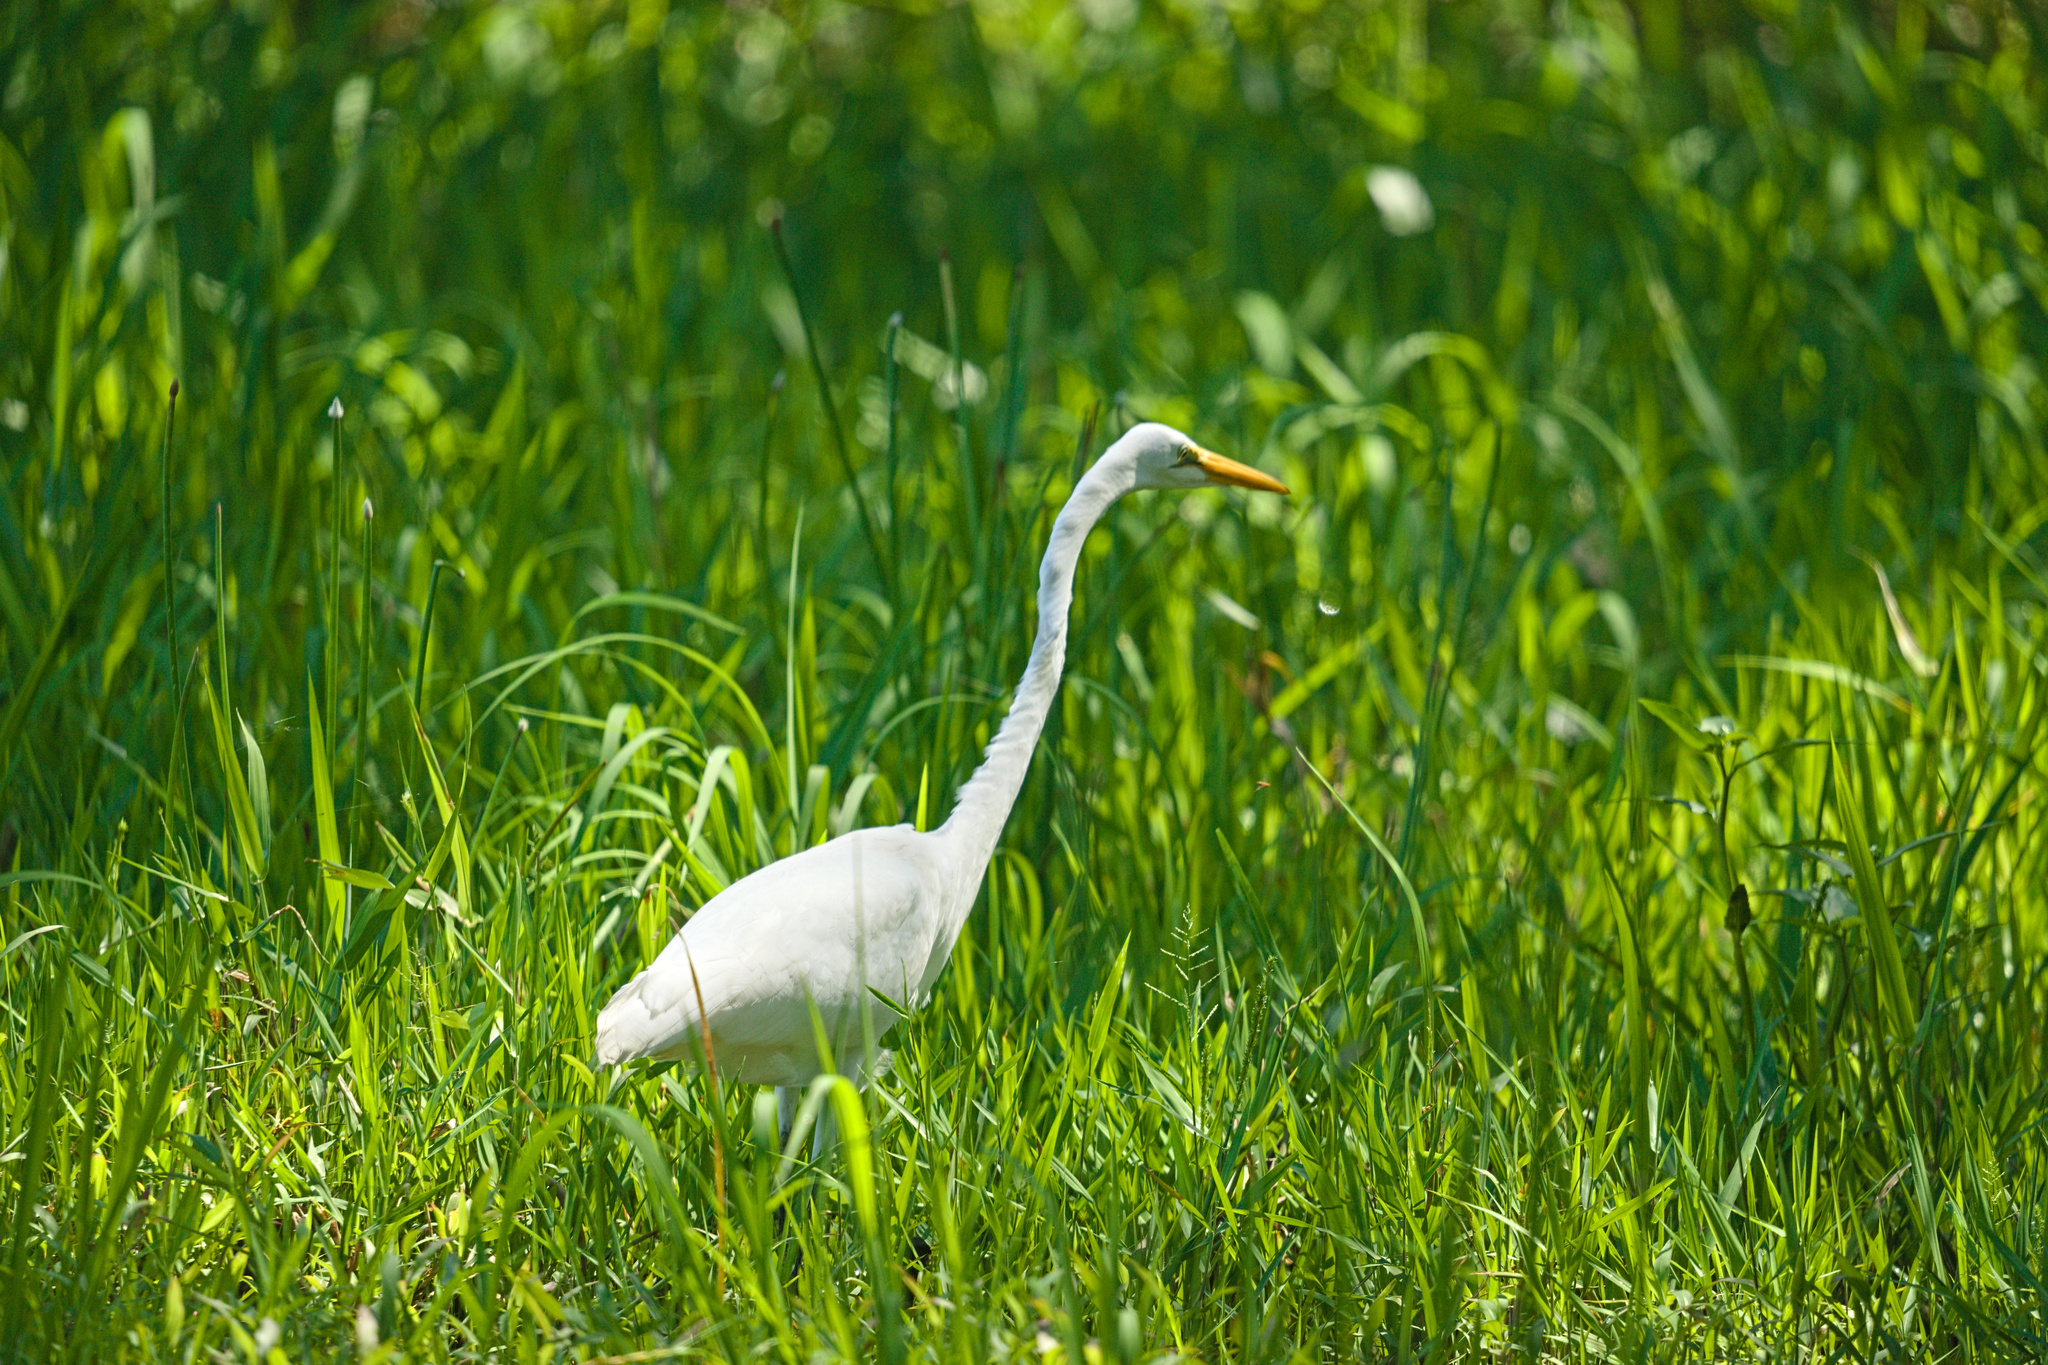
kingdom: Animalia
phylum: Chordata
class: Aves
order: Pelecaniformes
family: Ardeidae
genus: Ardea
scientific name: Ardea alba
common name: Great egret
